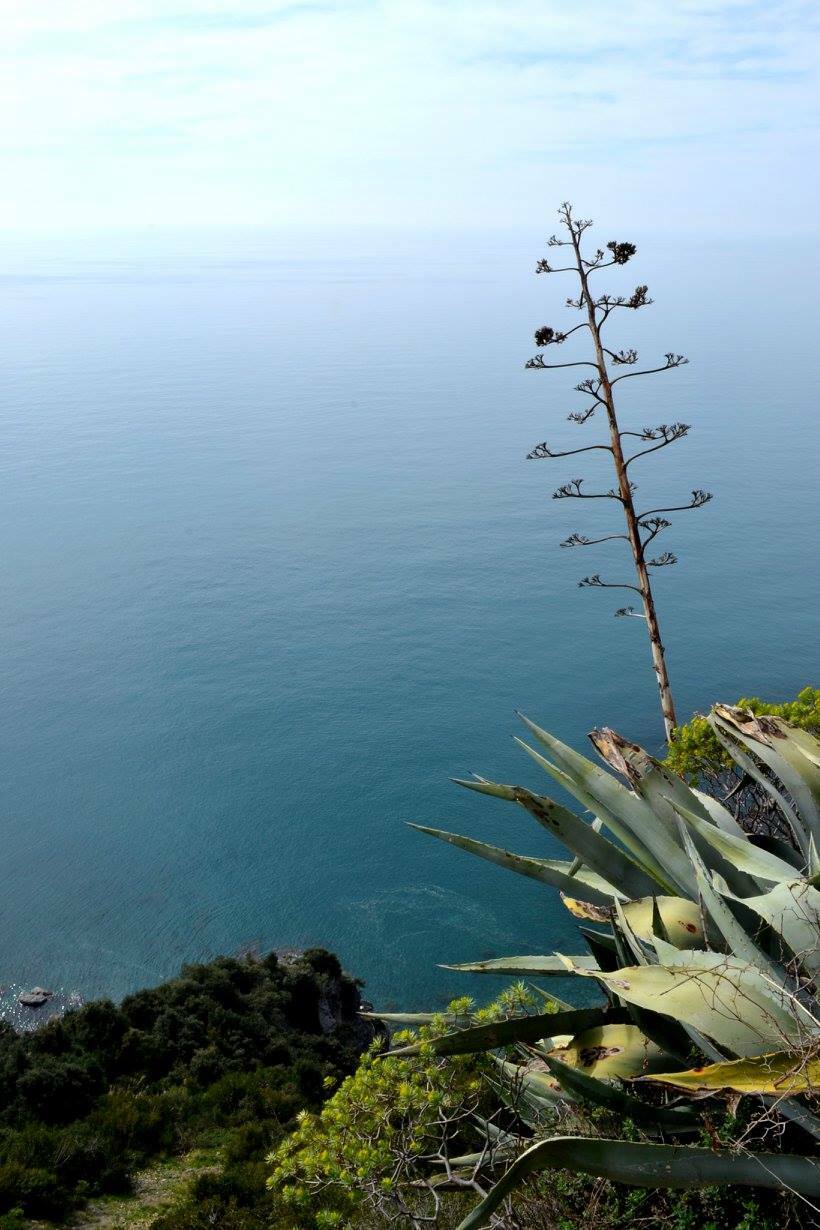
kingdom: Plantae
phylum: Tracheophyta
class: Liliopsida
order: Asparagales
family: Asparagaceae
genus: Agave
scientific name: Agave americana
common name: Centuryplant
